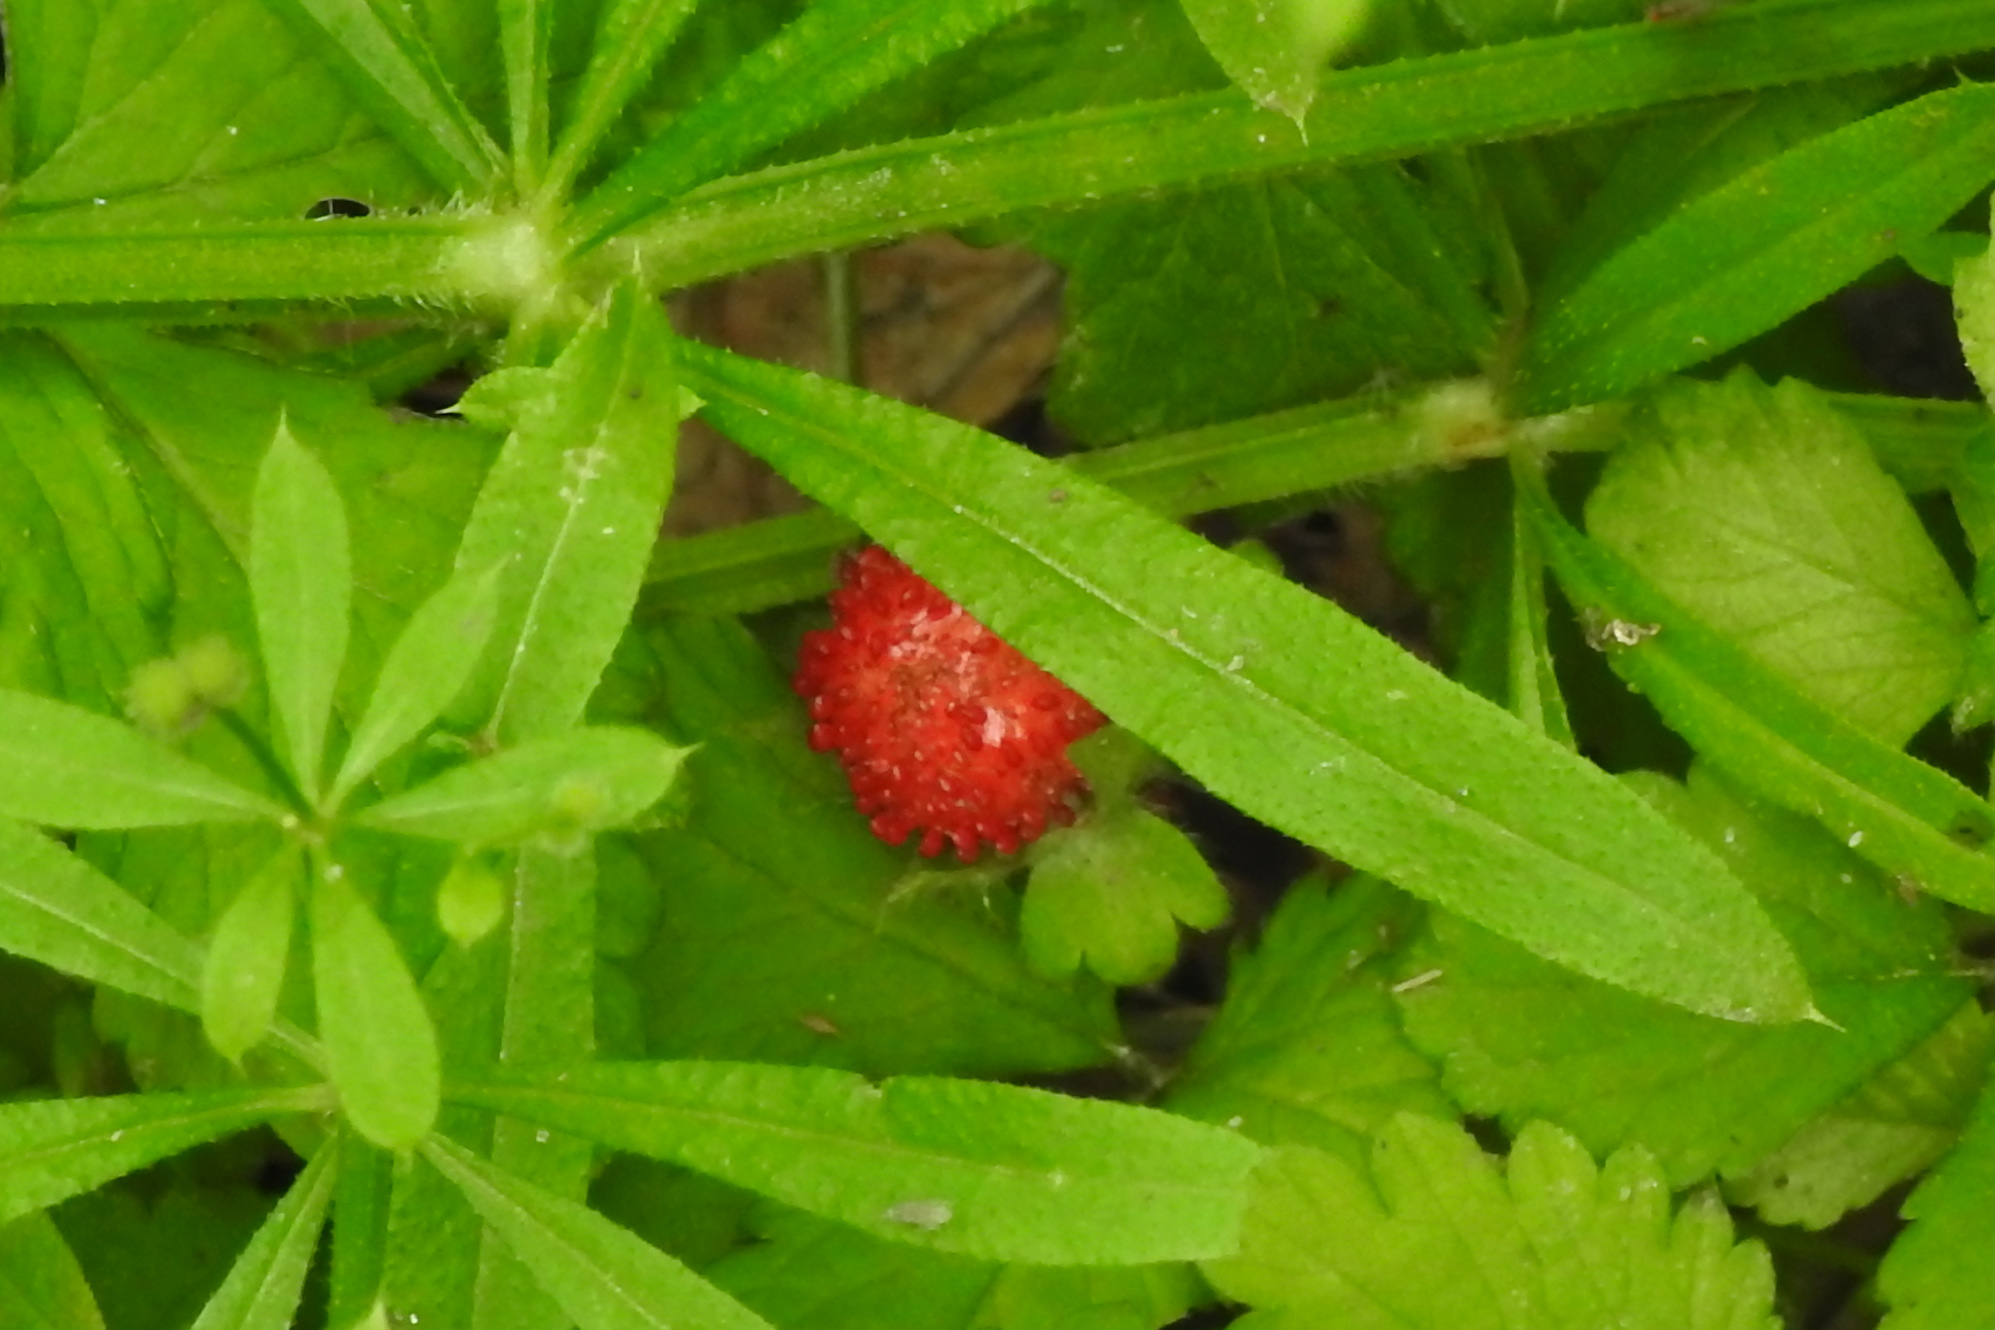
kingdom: Plantae
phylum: Tracheophyta
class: Magnoliopsida
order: Rosales
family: Rosaceae
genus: Potentilla
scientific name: Potentilla indica
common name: Yellow-flowered strawberry
